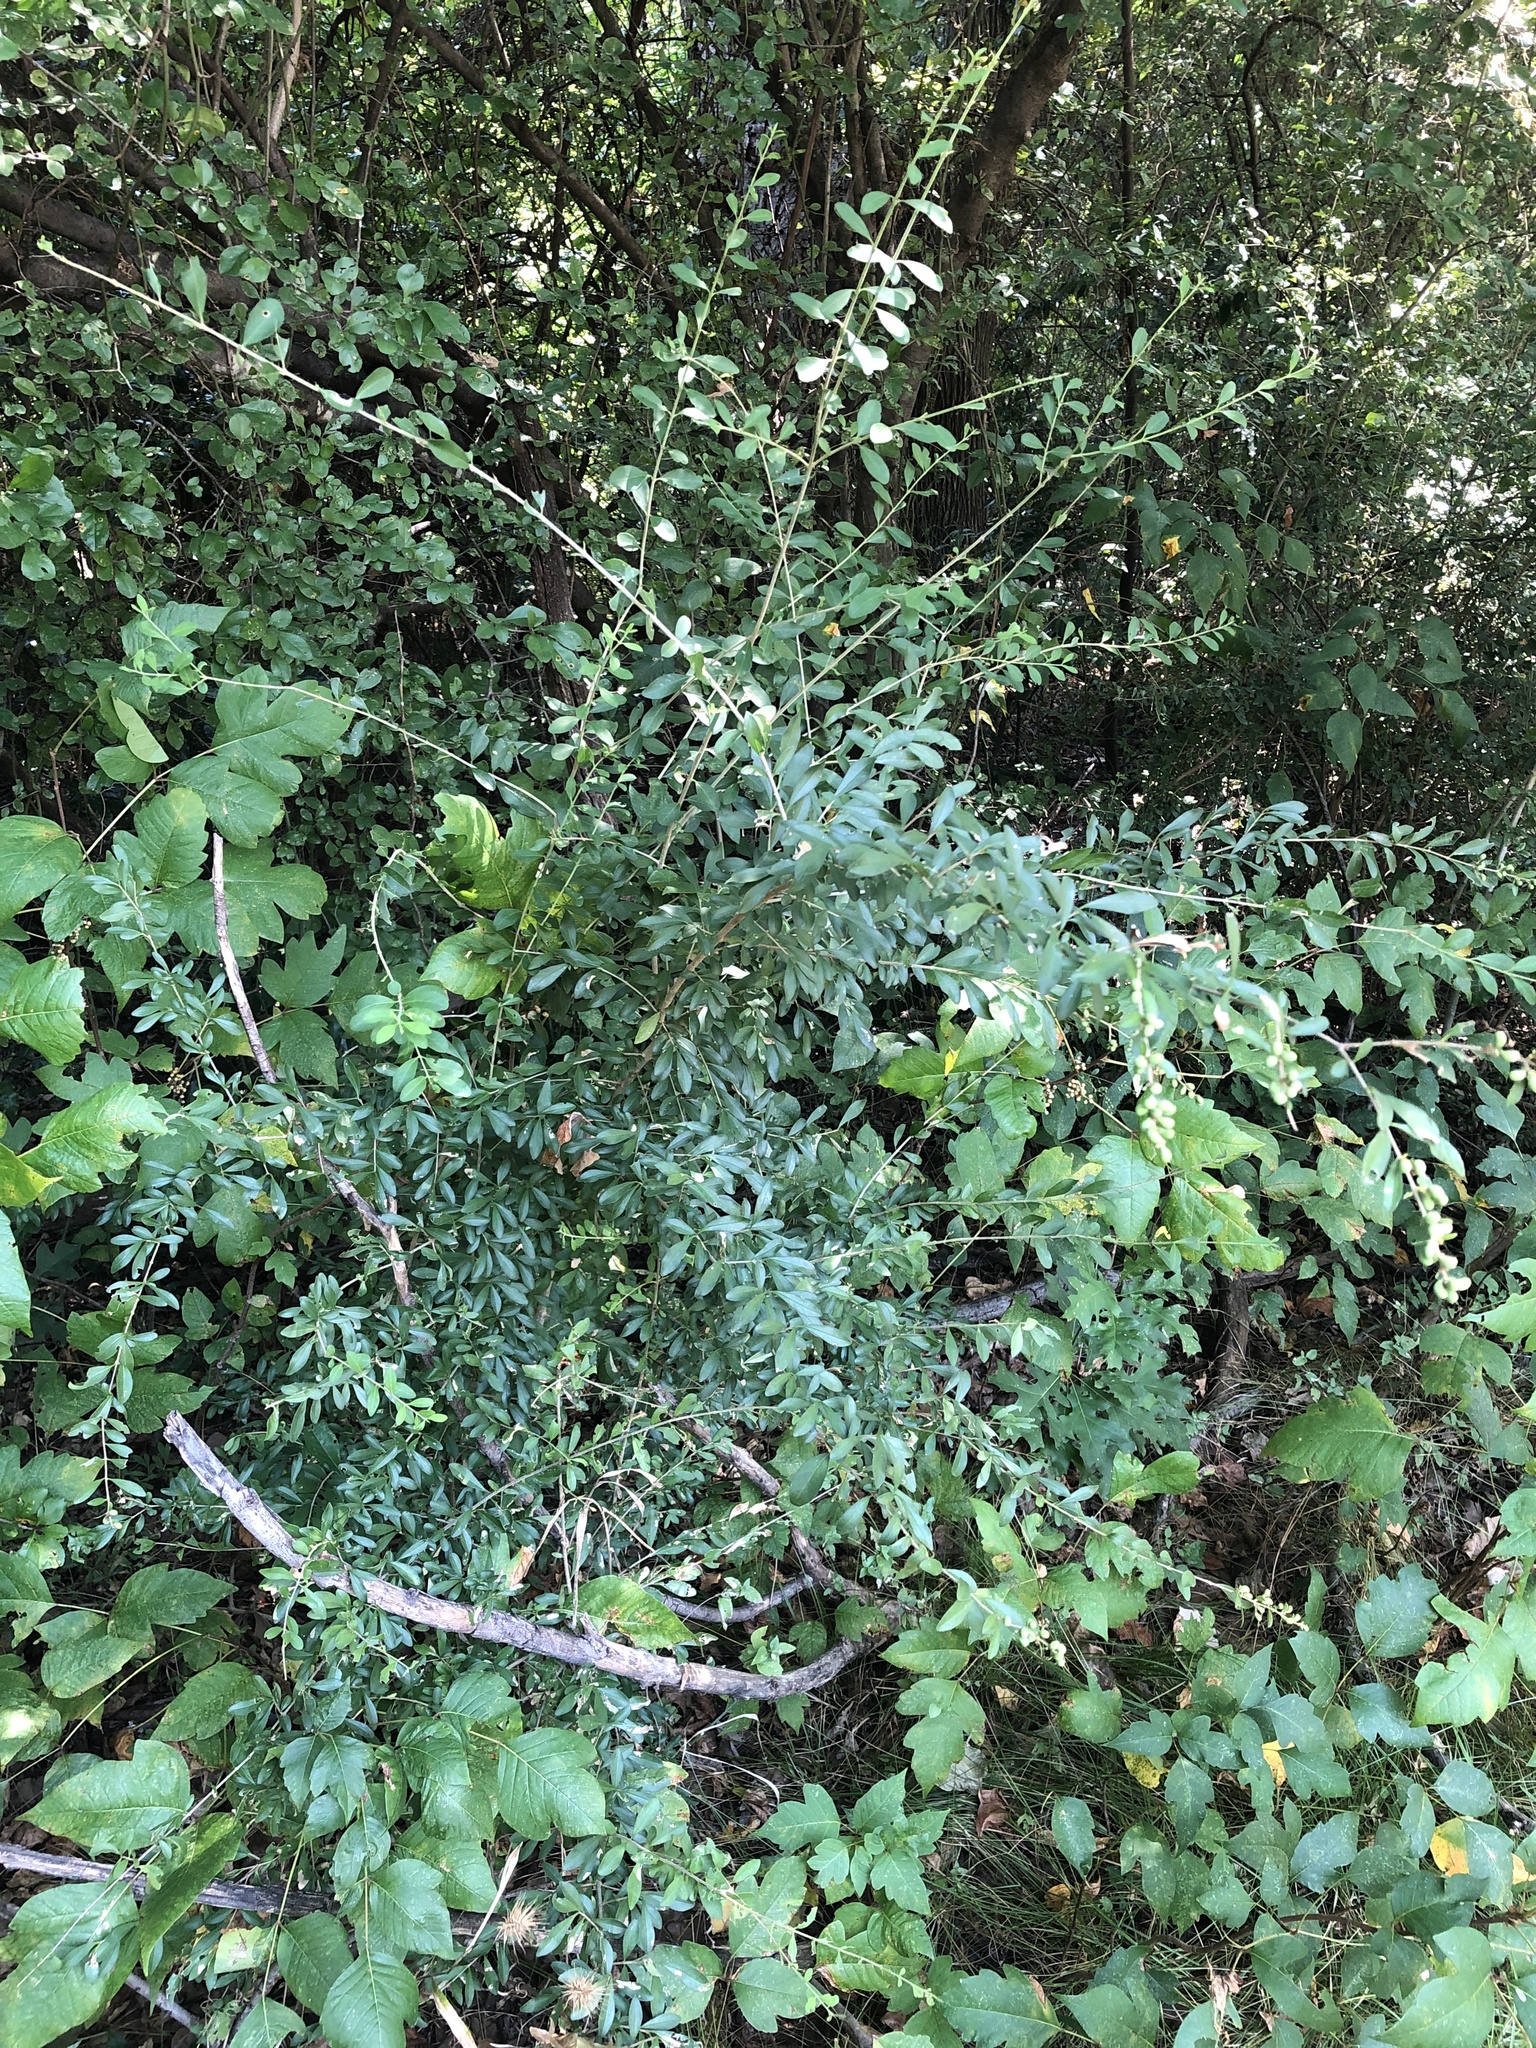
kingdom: Plantae
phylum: Tracheophyta
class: Magnoliopsida
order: Lamiales
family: Oleaceae
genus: Ligustrum
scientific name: Ligustrum quihoui
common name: Waxyleaf privet
